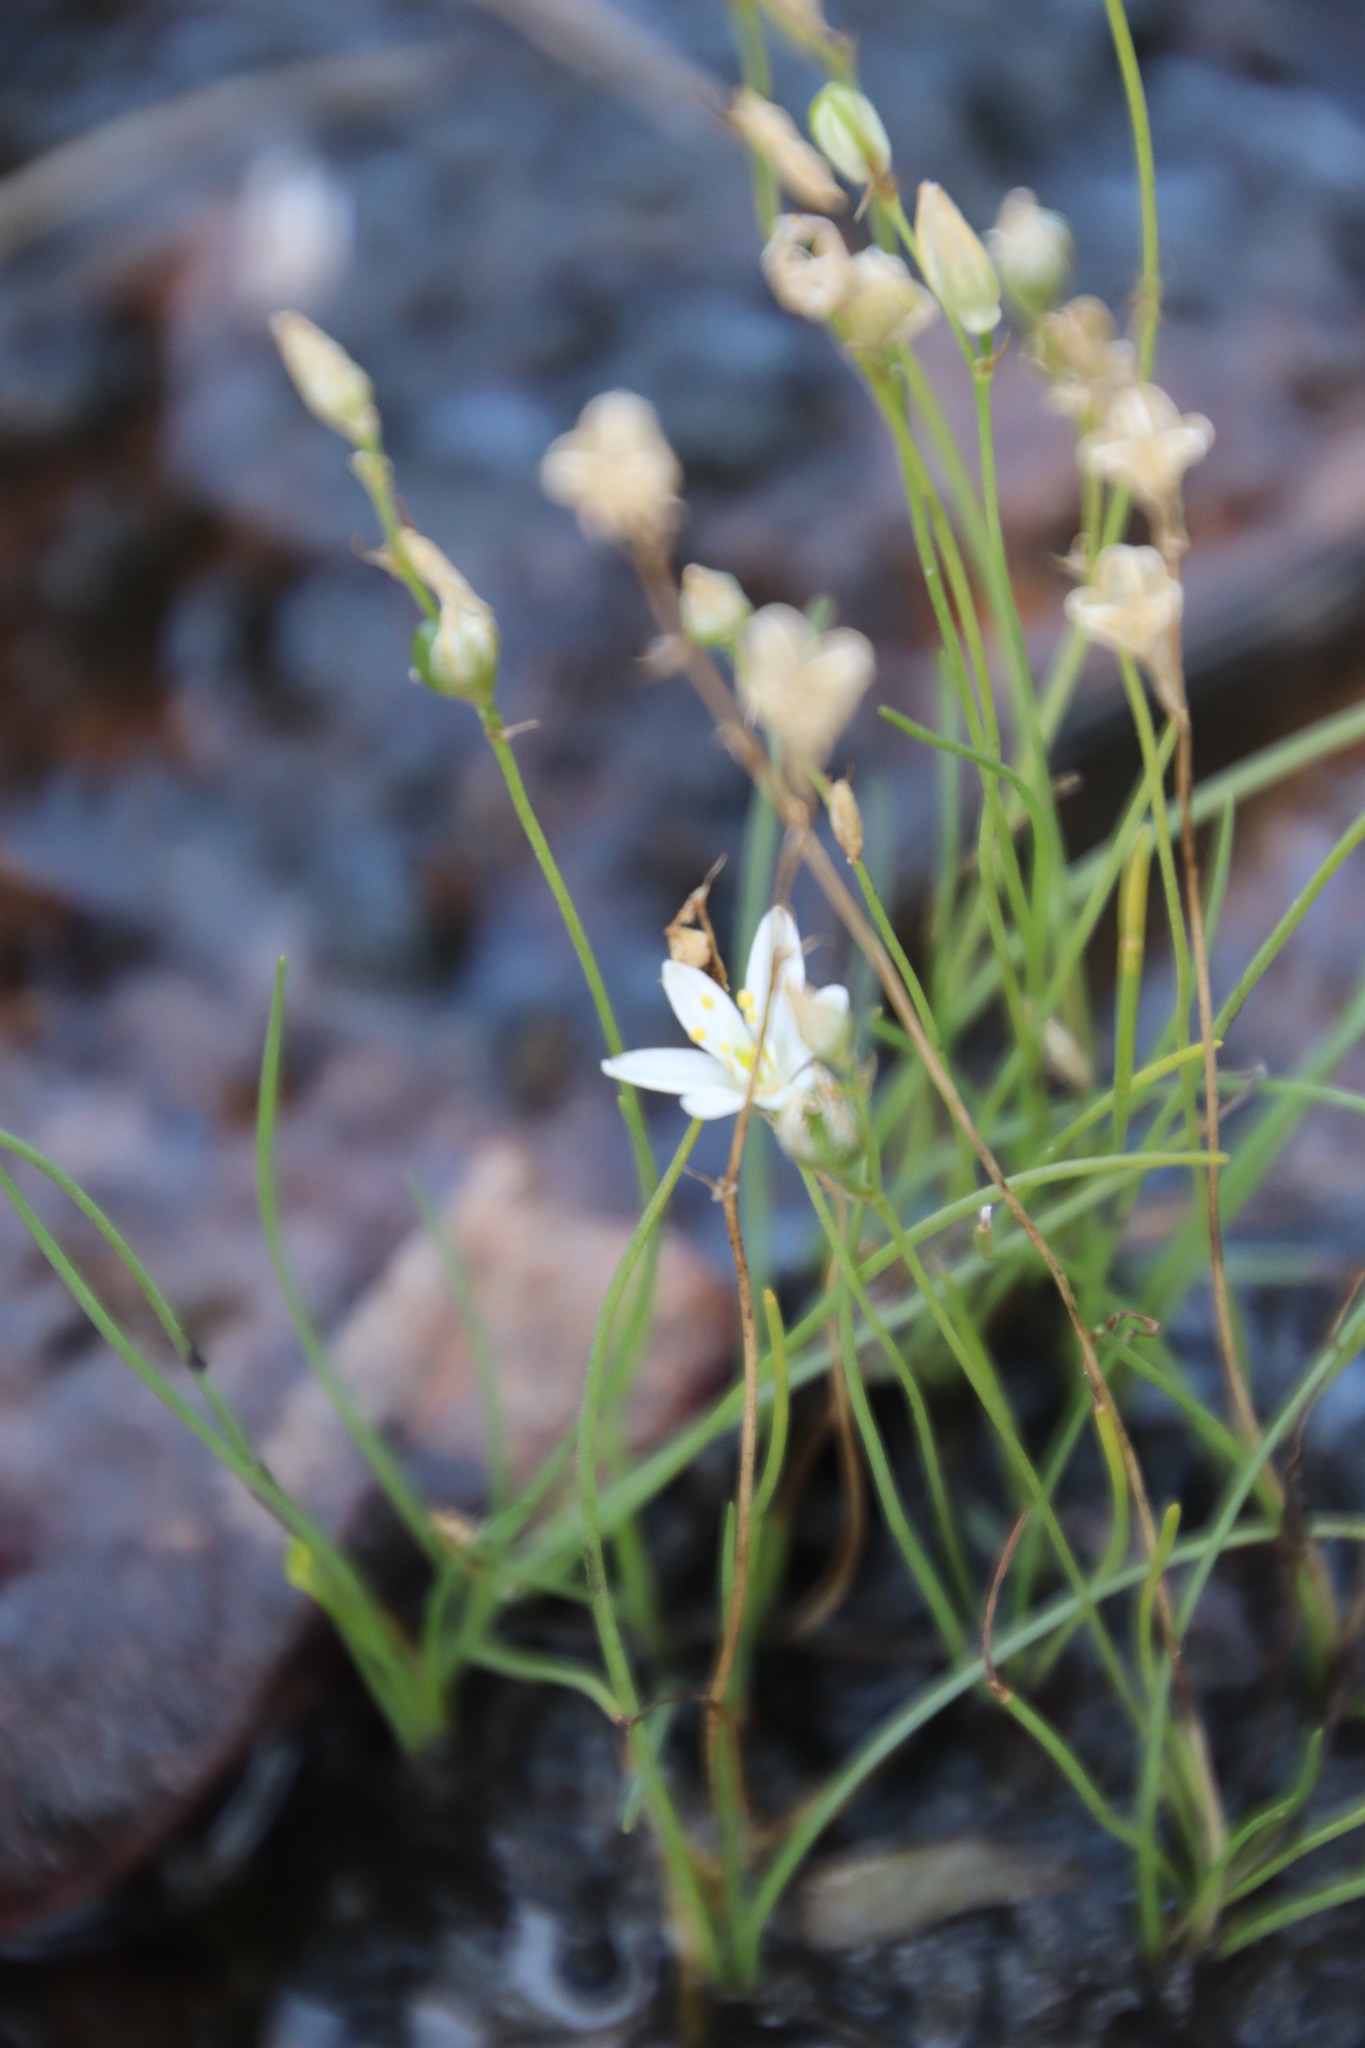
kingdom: Plantae
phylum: Tracheophyta
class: Liliopsida
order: Asparagales
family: Asparagaceae
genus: Ornithogalum
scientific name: Ornithogalum paludosum
